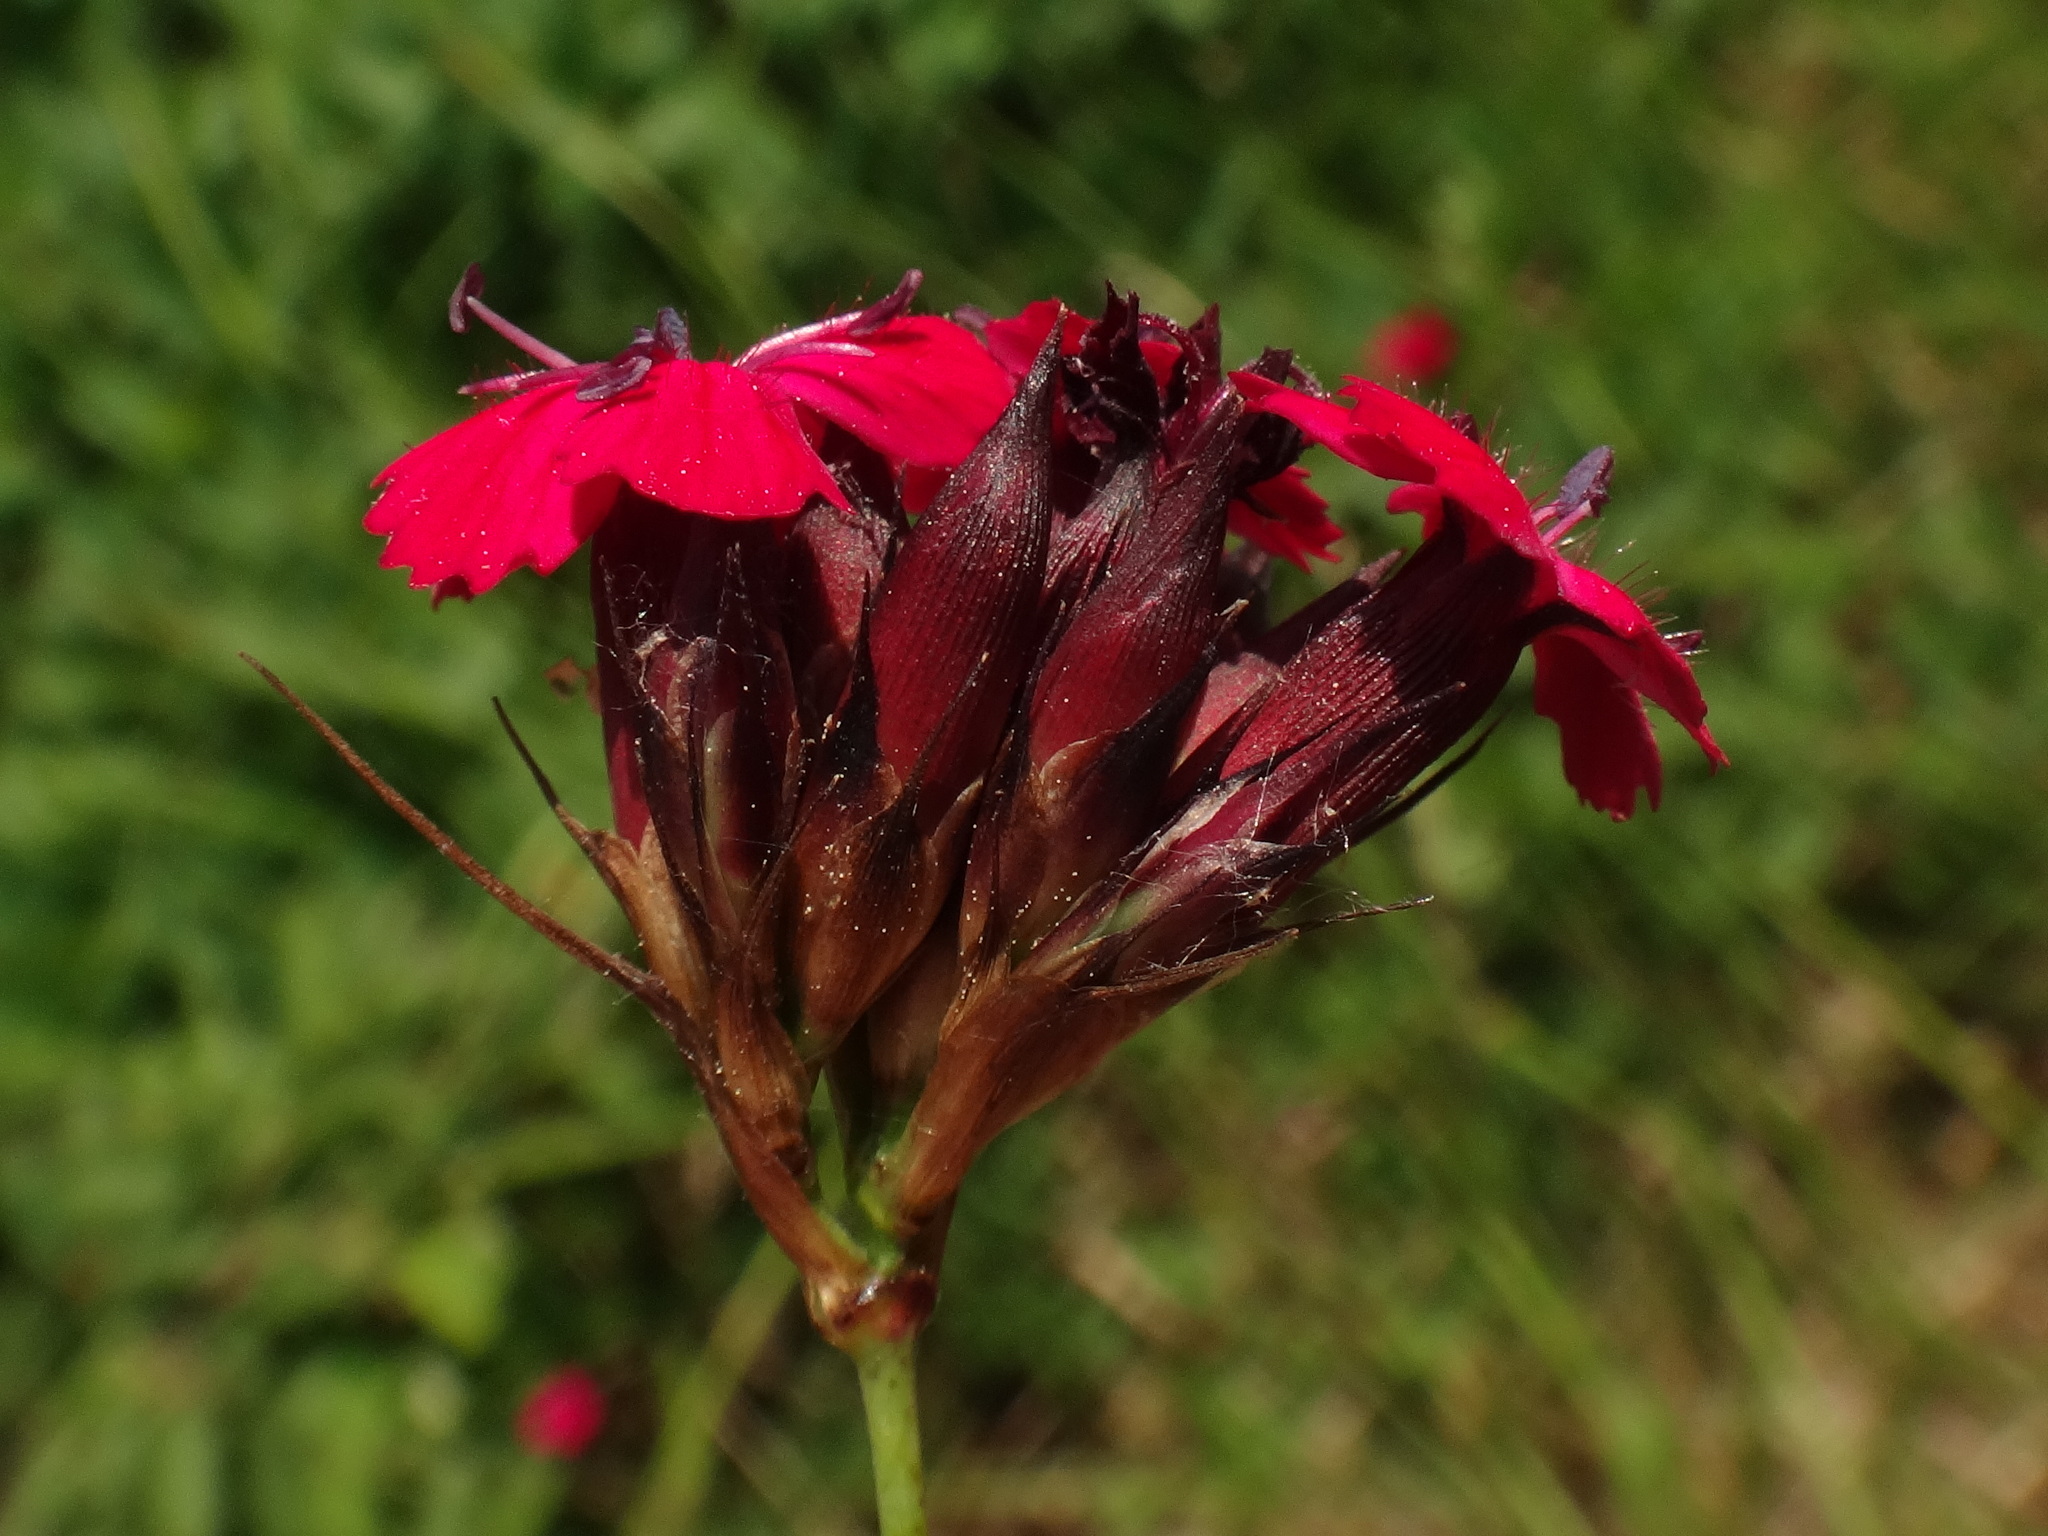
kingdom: Plantae
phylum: Tracheophyta
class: Magnoliopsida
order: Caryophyllales
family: Caryophyllaceae
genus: Dianthus
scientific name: Dianthus carthusianorum
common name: Carthusian pink
